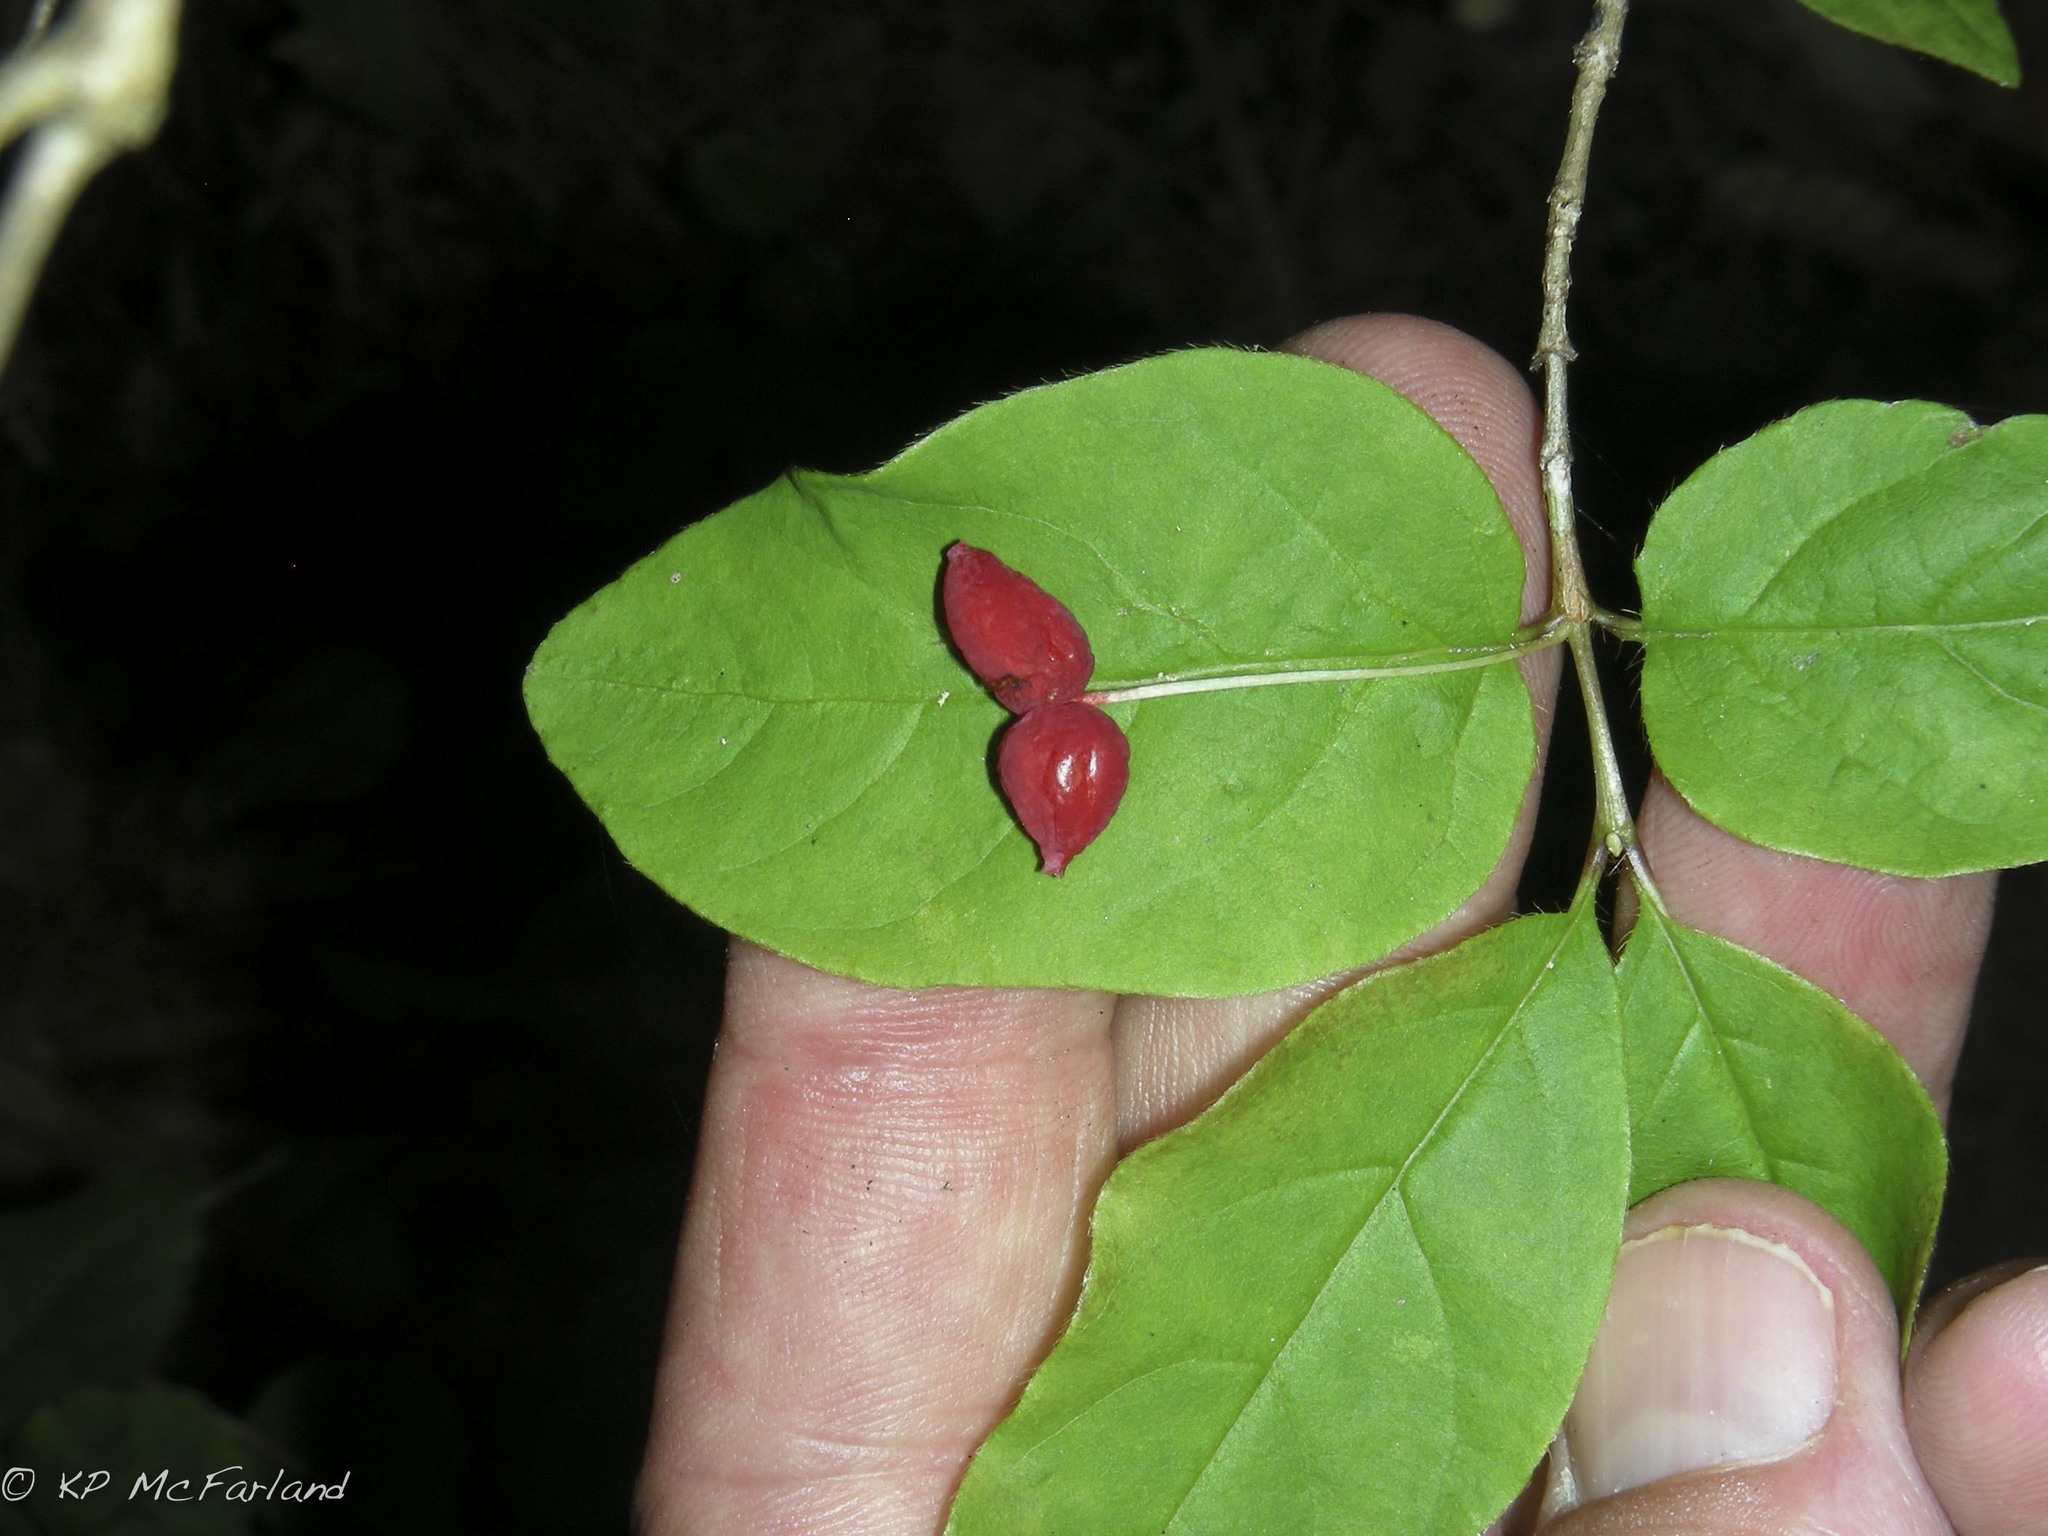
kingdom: Plantae
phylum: Tracheophyta
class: Magnoliopsida
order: Dipsacales
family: Caprifoliaceae
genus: Lonicera
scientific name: Lonicera canadensis
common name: American fly-honeysuckle
